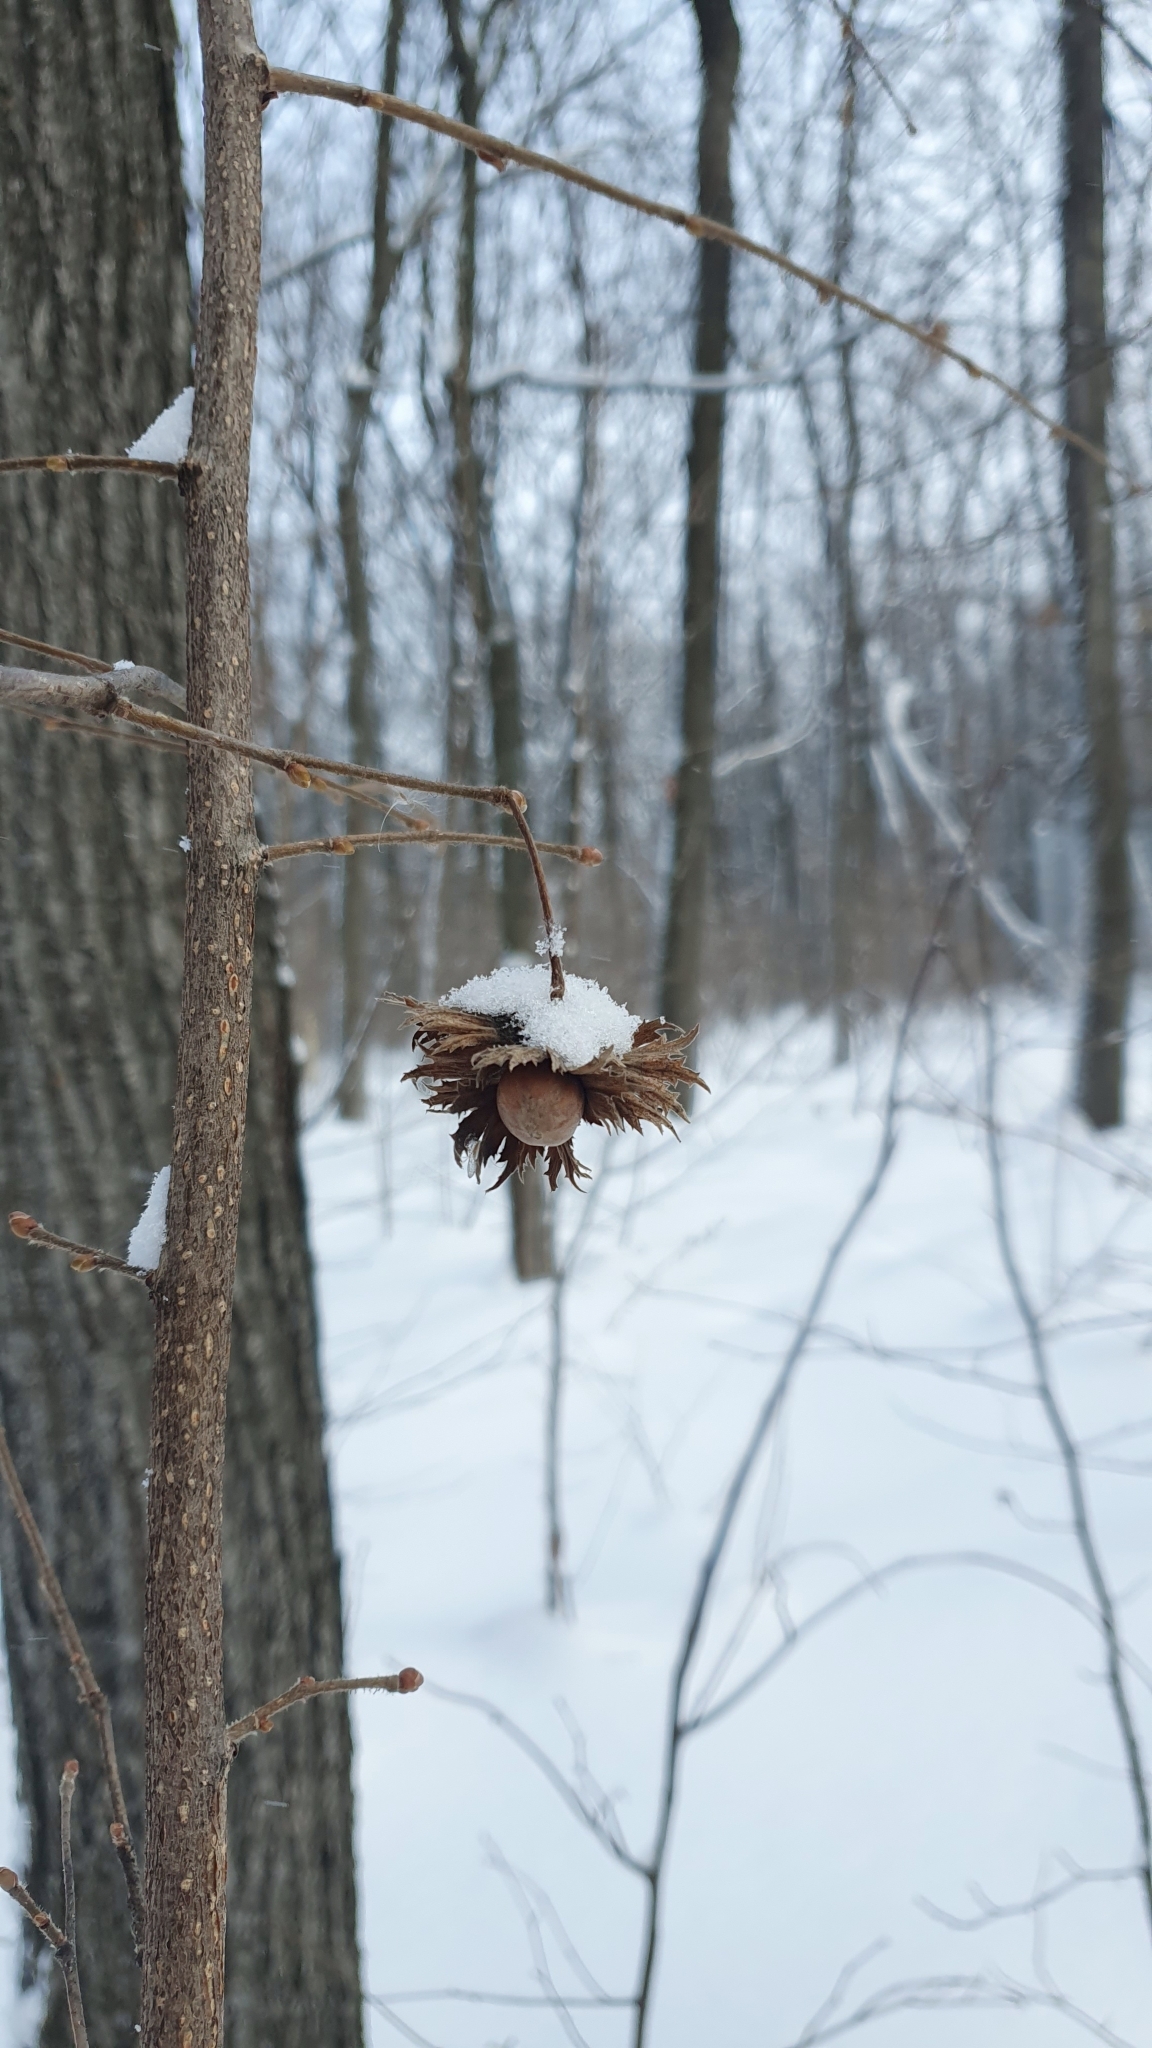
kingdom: Plantae
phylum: Tracheophyta
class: Magnoliopsida
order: Fagales
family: Betulaceae
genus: Corylus
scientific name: Corylus avellana
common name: European hazel
